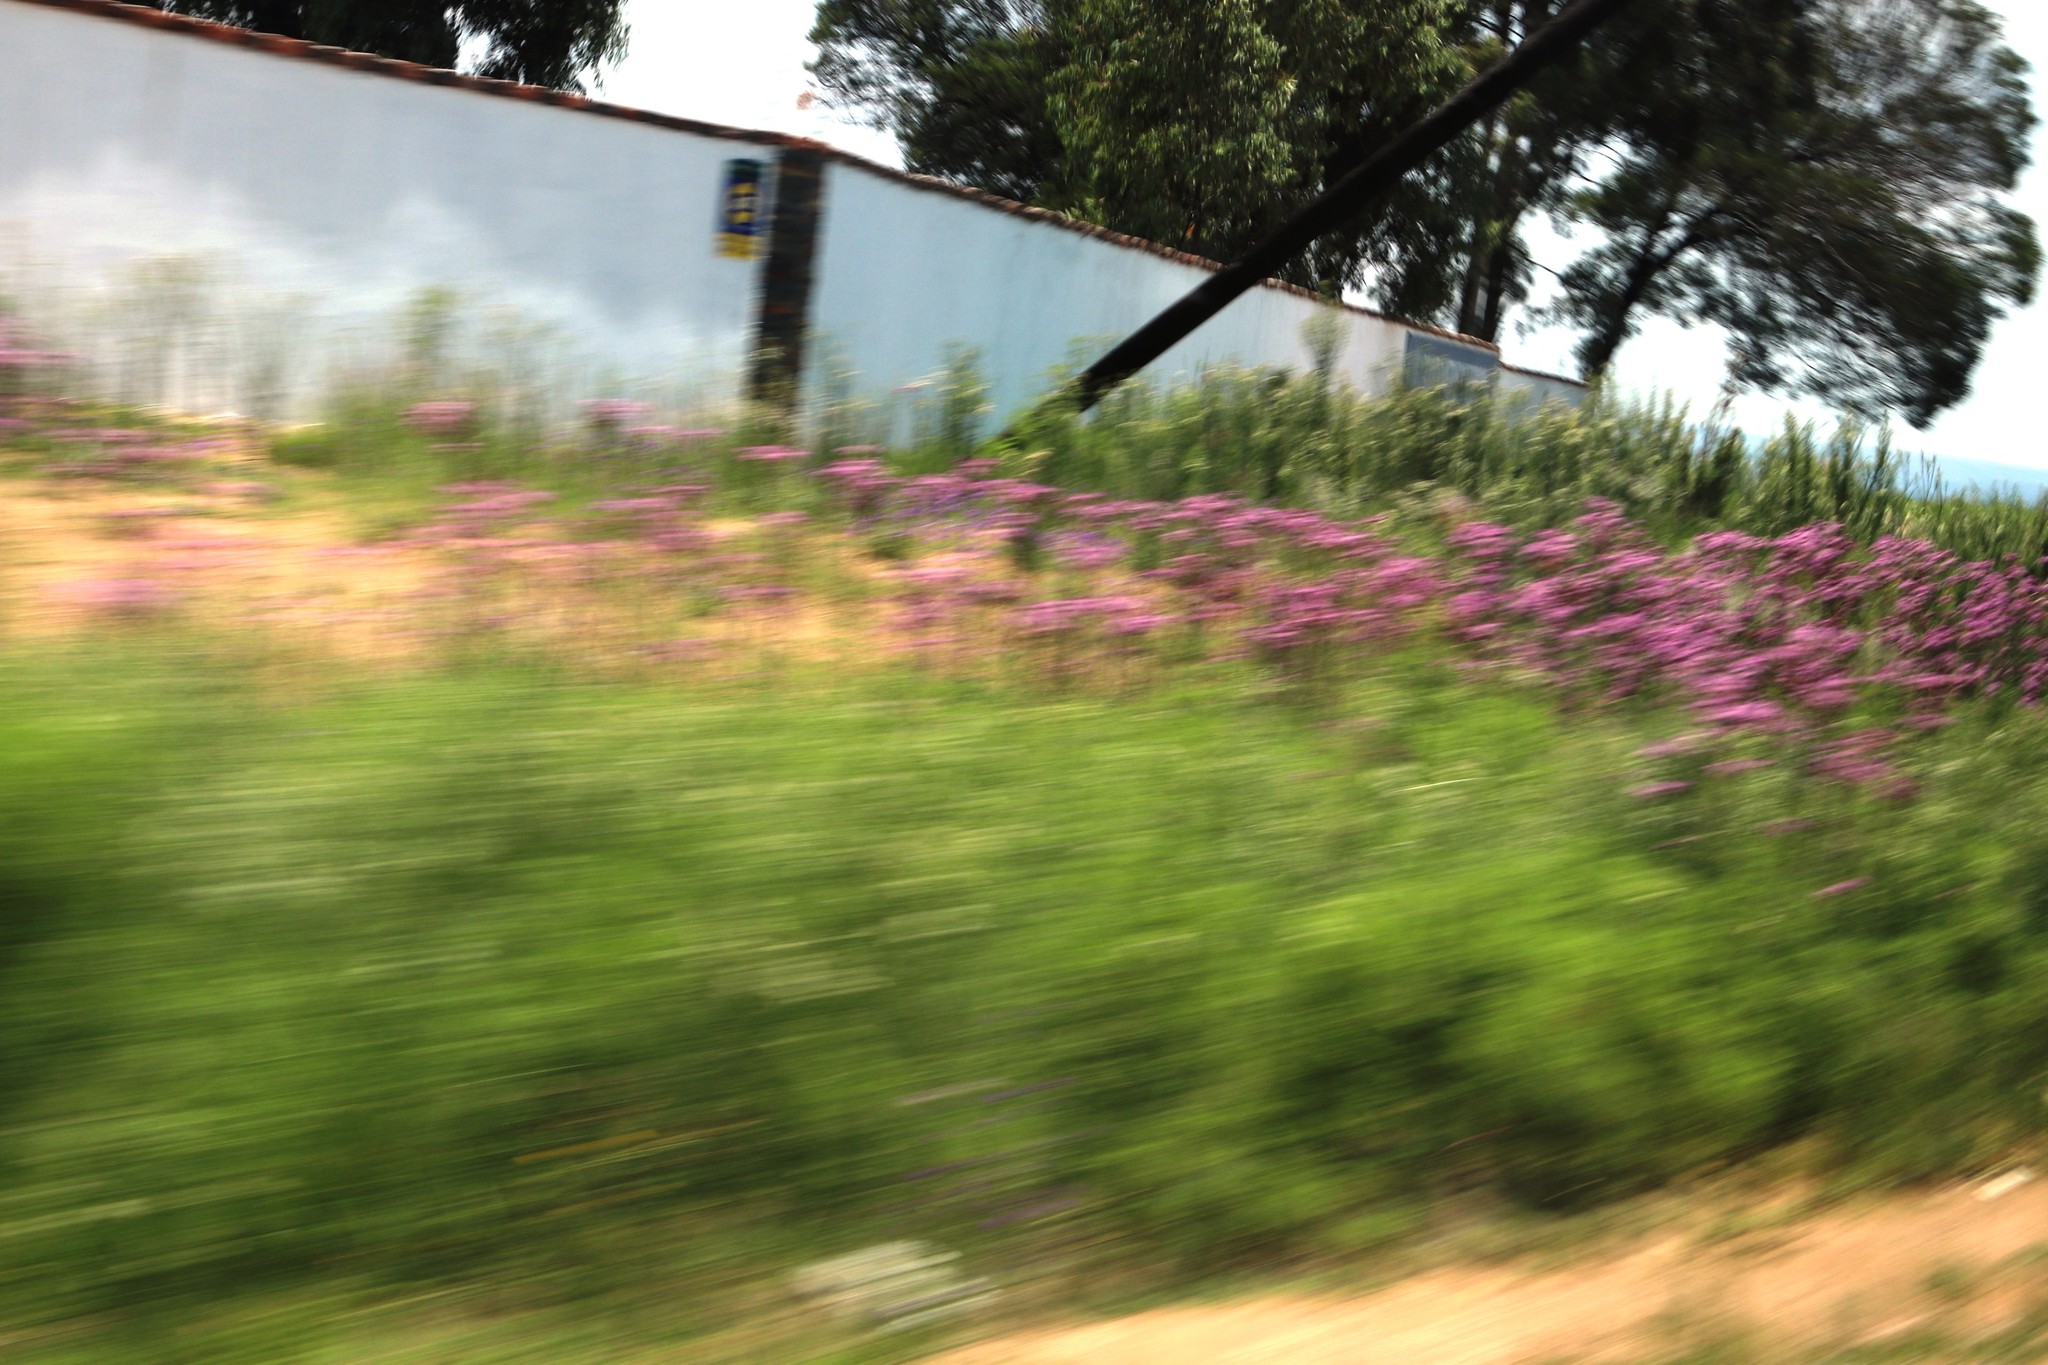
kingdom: Plantae
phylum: Tracheophyta
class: Magnoliopsida
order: Asterales
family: Asteraceae
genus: Campuloclinium
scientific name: Campuloclinium macrocephalum
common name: Pompomweed
